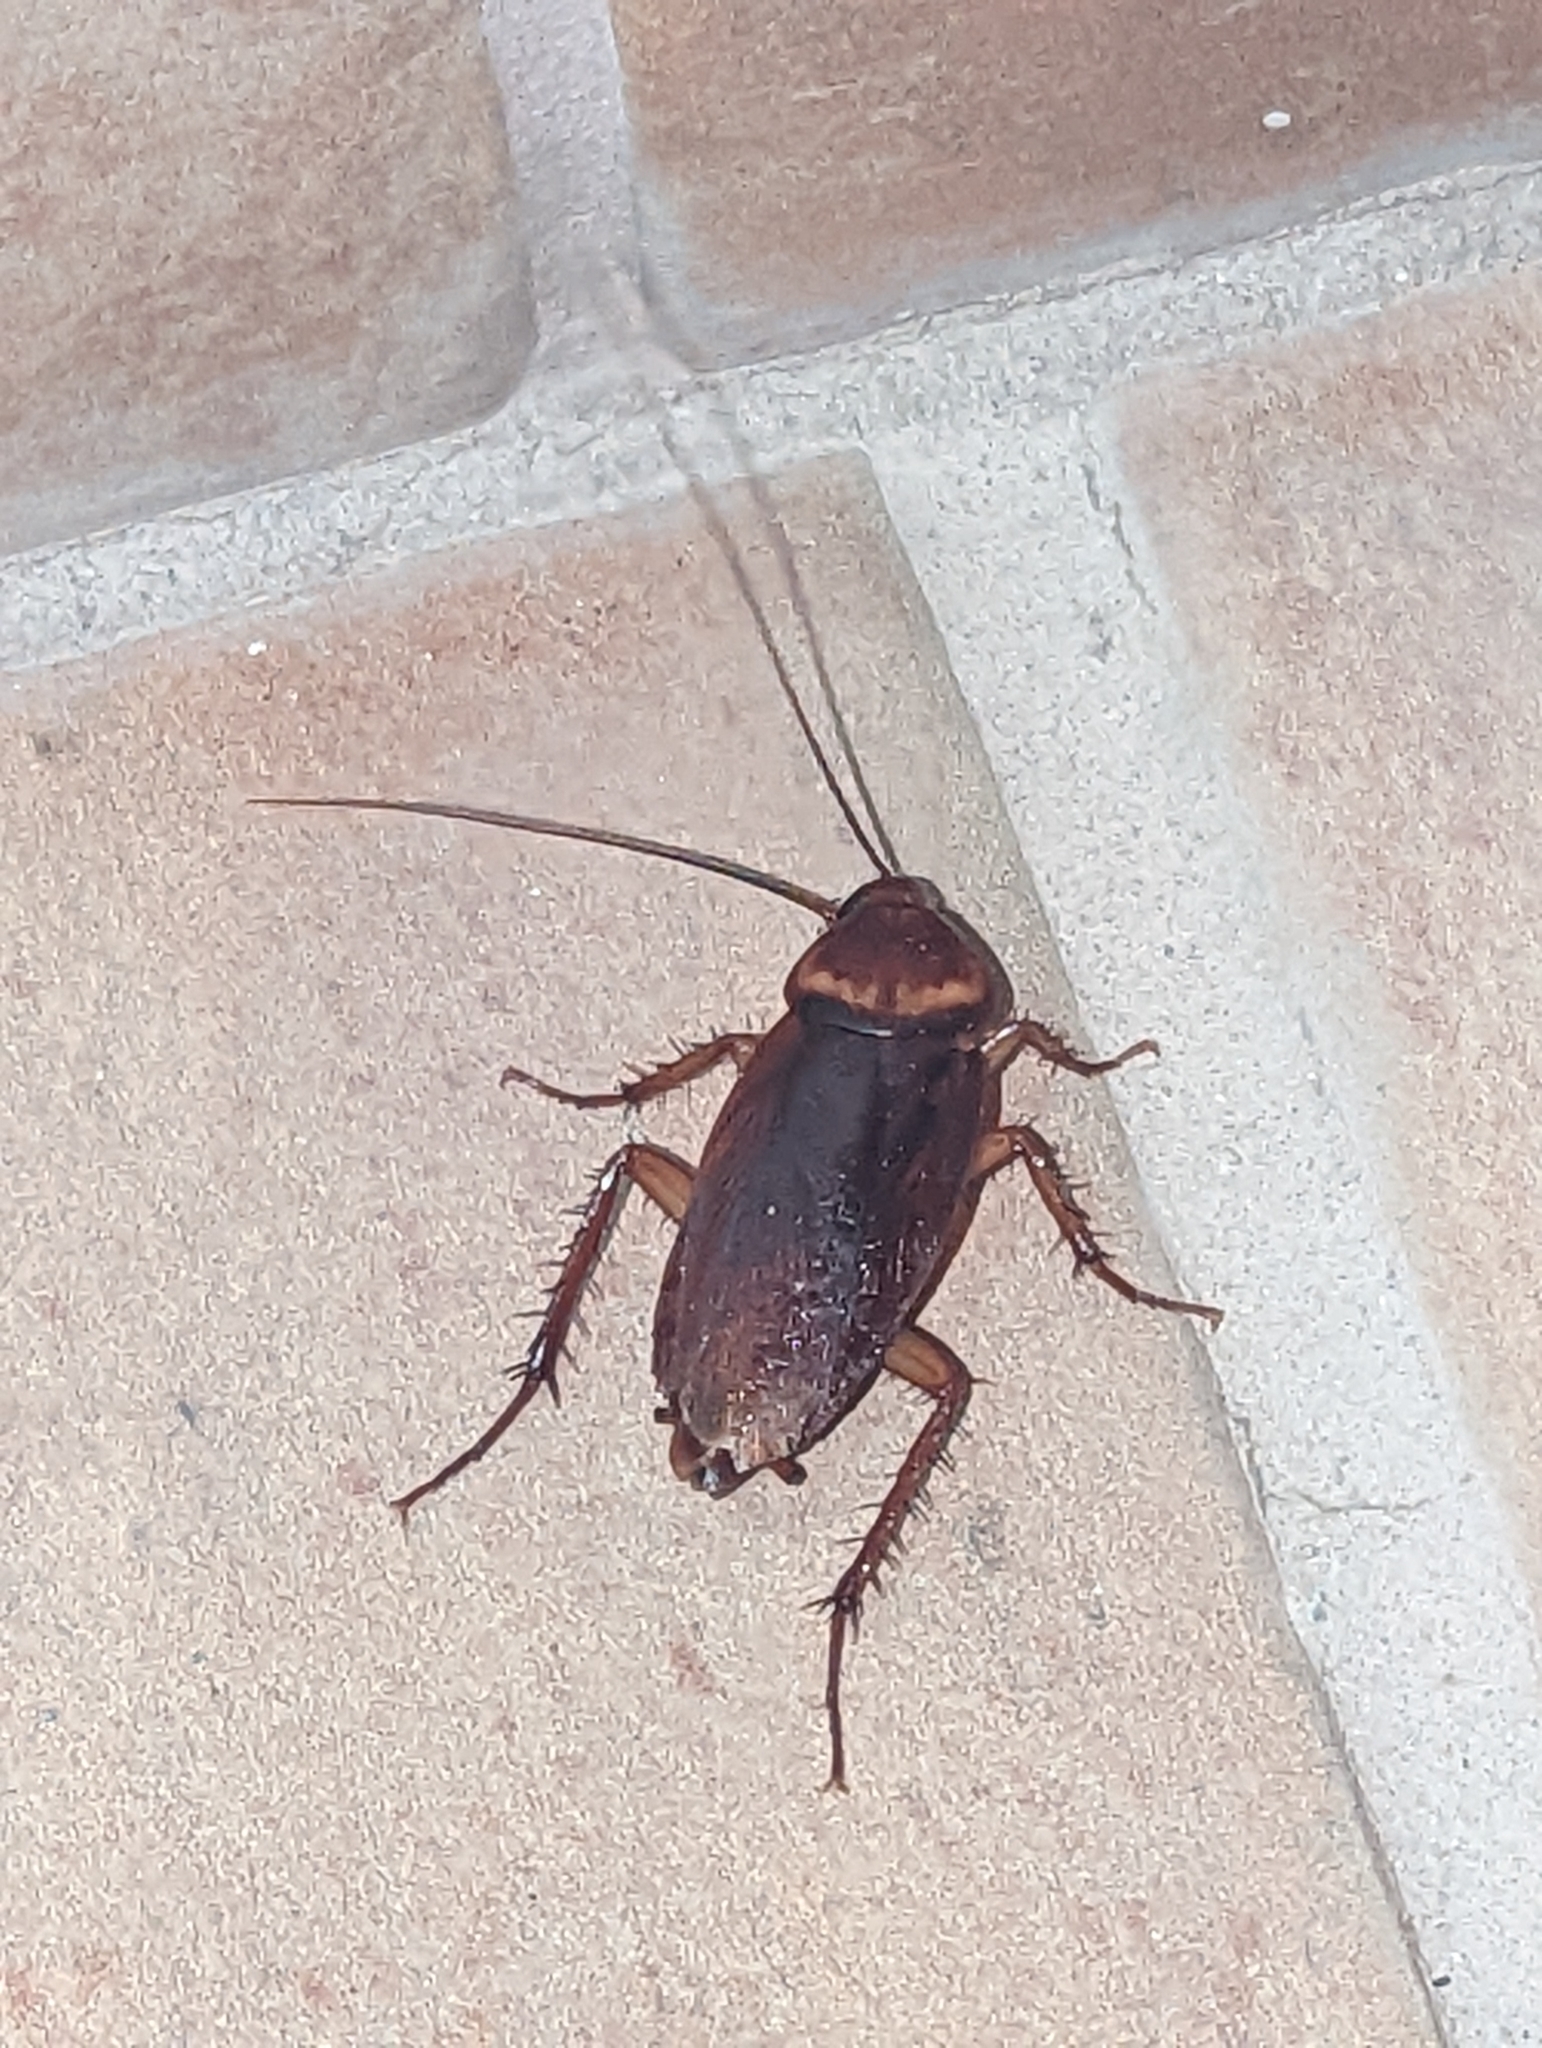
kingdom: Animalia
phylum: Arthropoda
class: Insecta
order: Blattodea
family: Blattidae
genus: Periplaneta
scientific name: Periplaneta americana
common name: American cockroach
